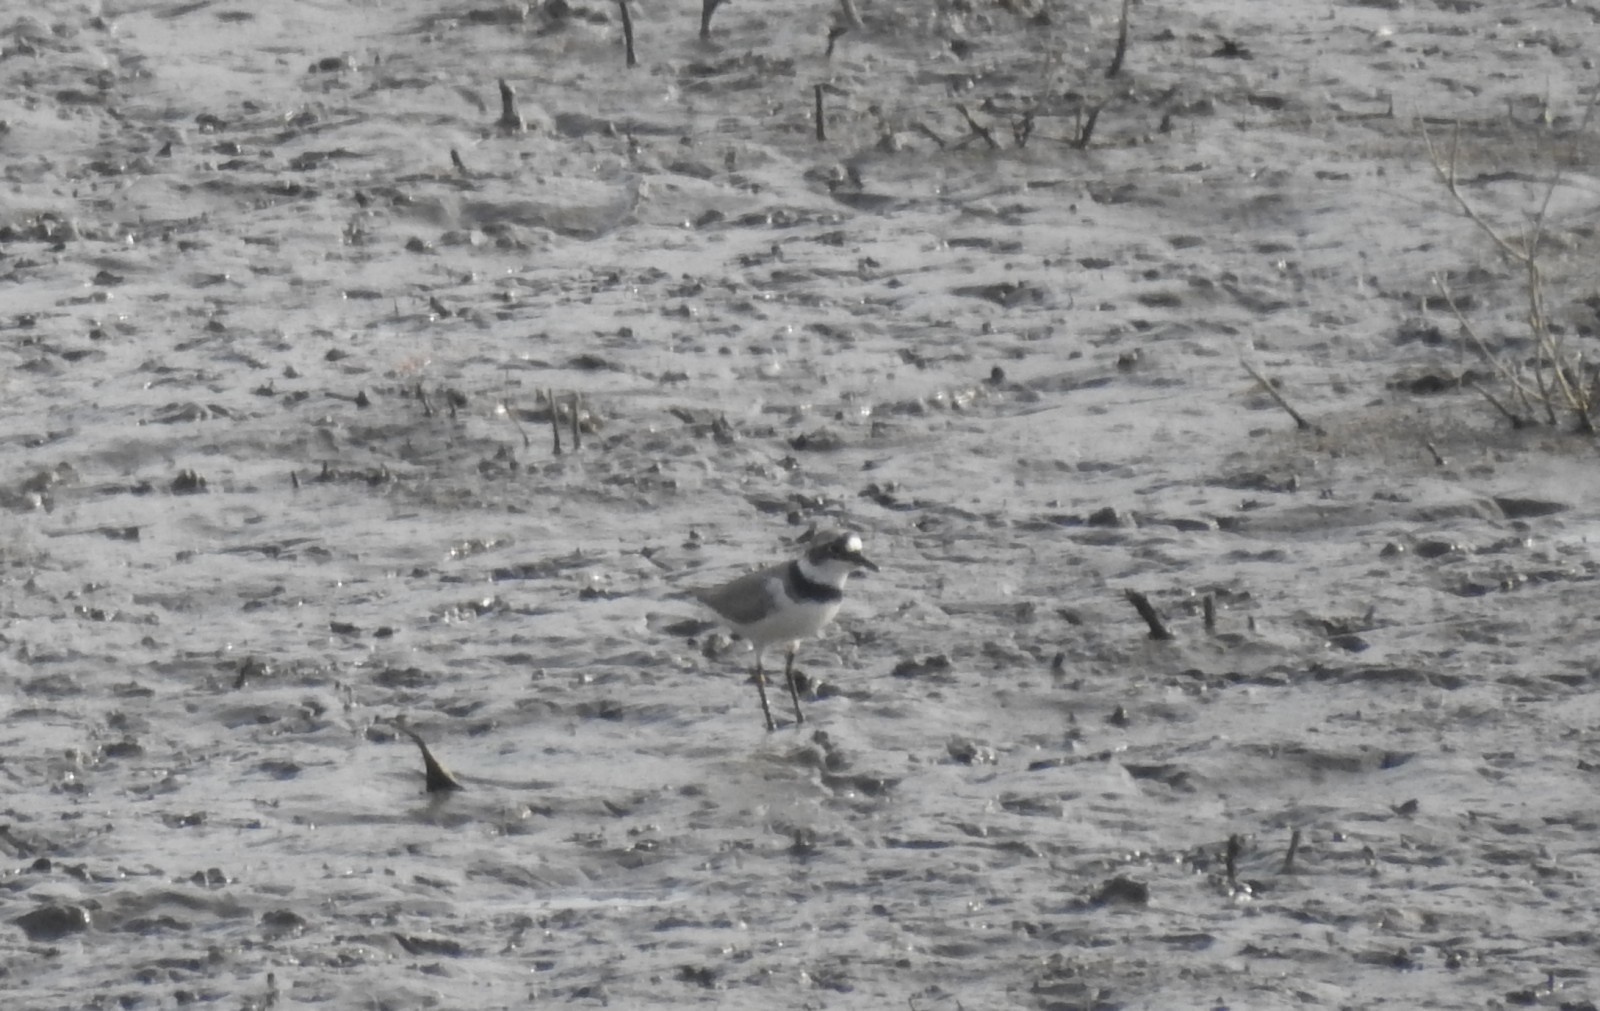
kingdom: Animalia
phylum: Chordata
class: Aves
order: Charadriiformes
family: Charadriidae
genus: Charadrius
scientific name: Charadrius dubius
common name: Little ringed plover
